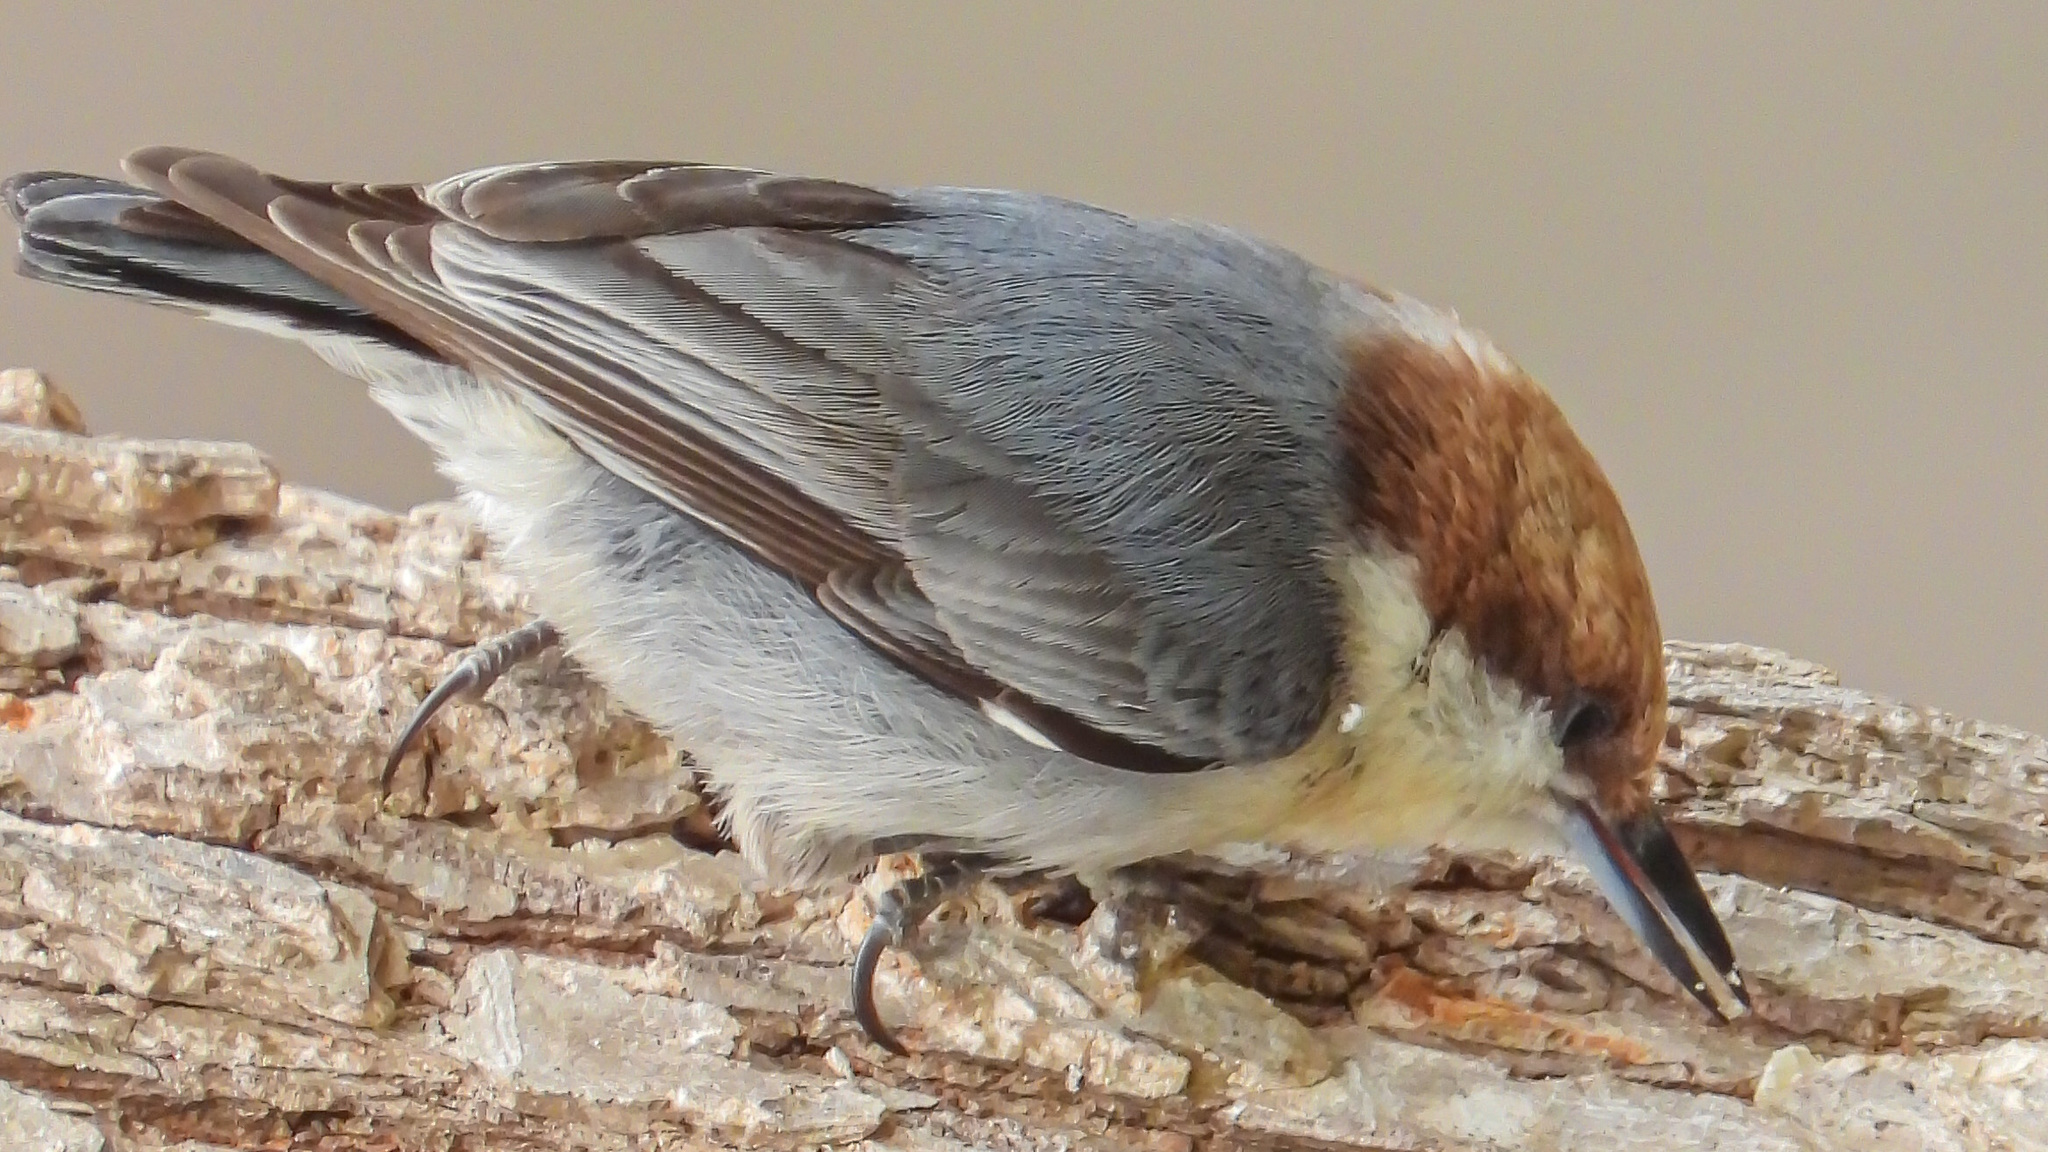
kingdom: Animalia
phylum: Chordata
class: Aves
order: Passeriformes
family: Sittidae
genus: Sitta
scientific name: Sitta pusilla
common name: Brown-headed nuthatch
